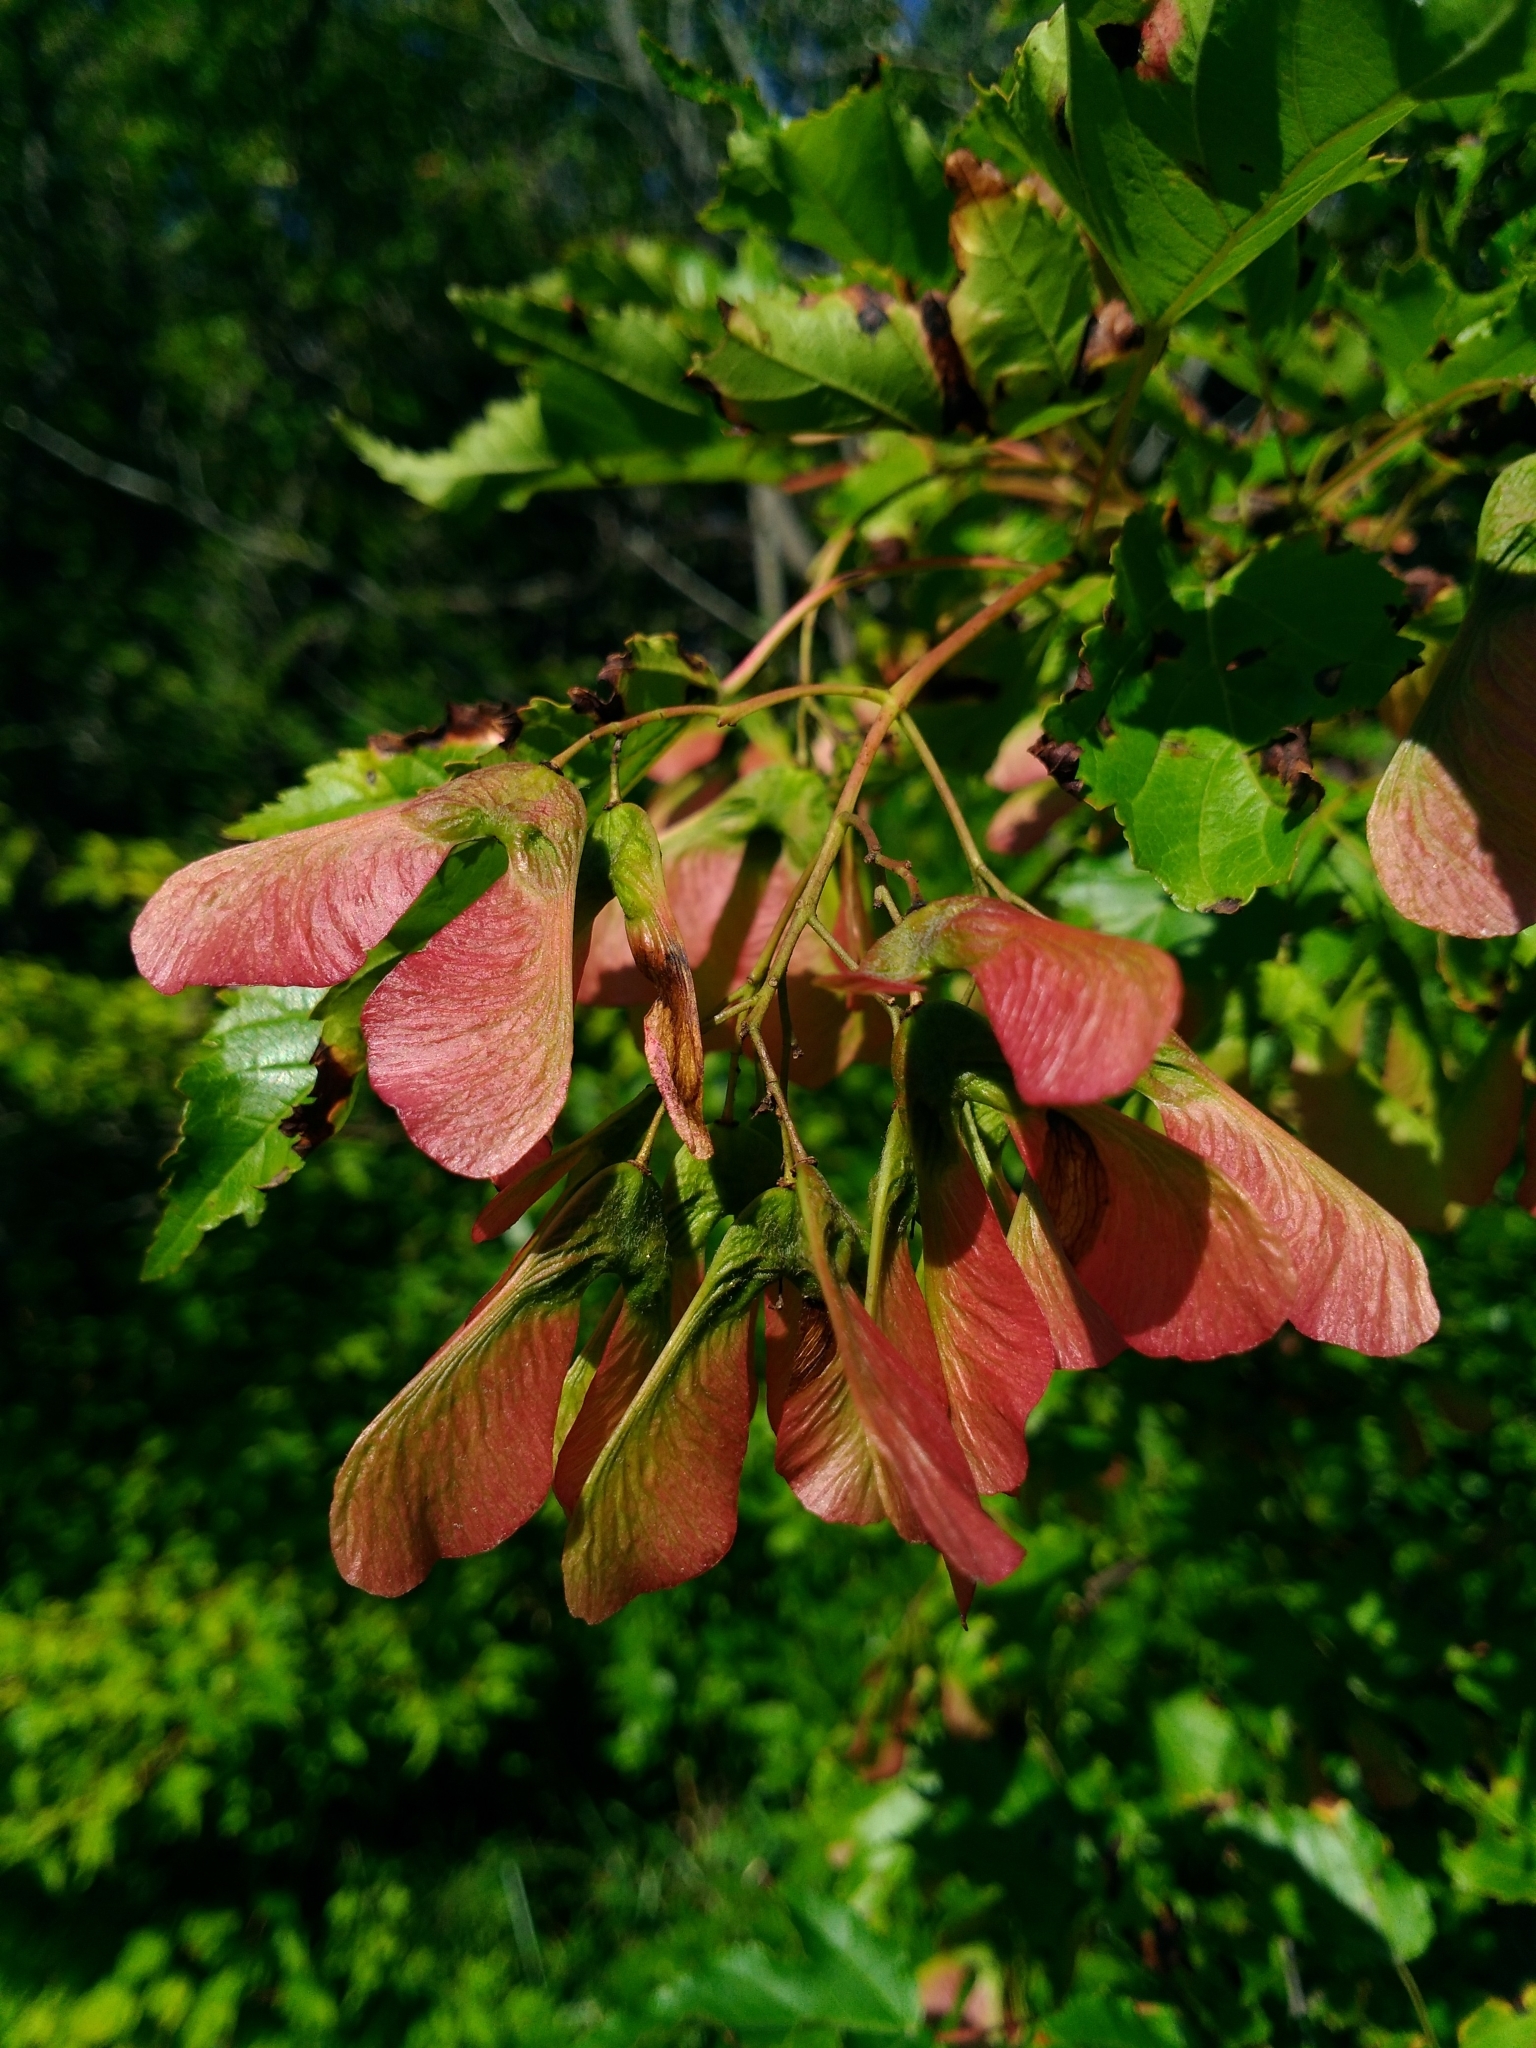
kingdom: Plantae
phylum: Tracheophyta
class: Magnoliopsida
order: Sapindales
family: Sapindaceae
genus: Acer
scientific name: Acer tataricum
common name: Tartar maple
